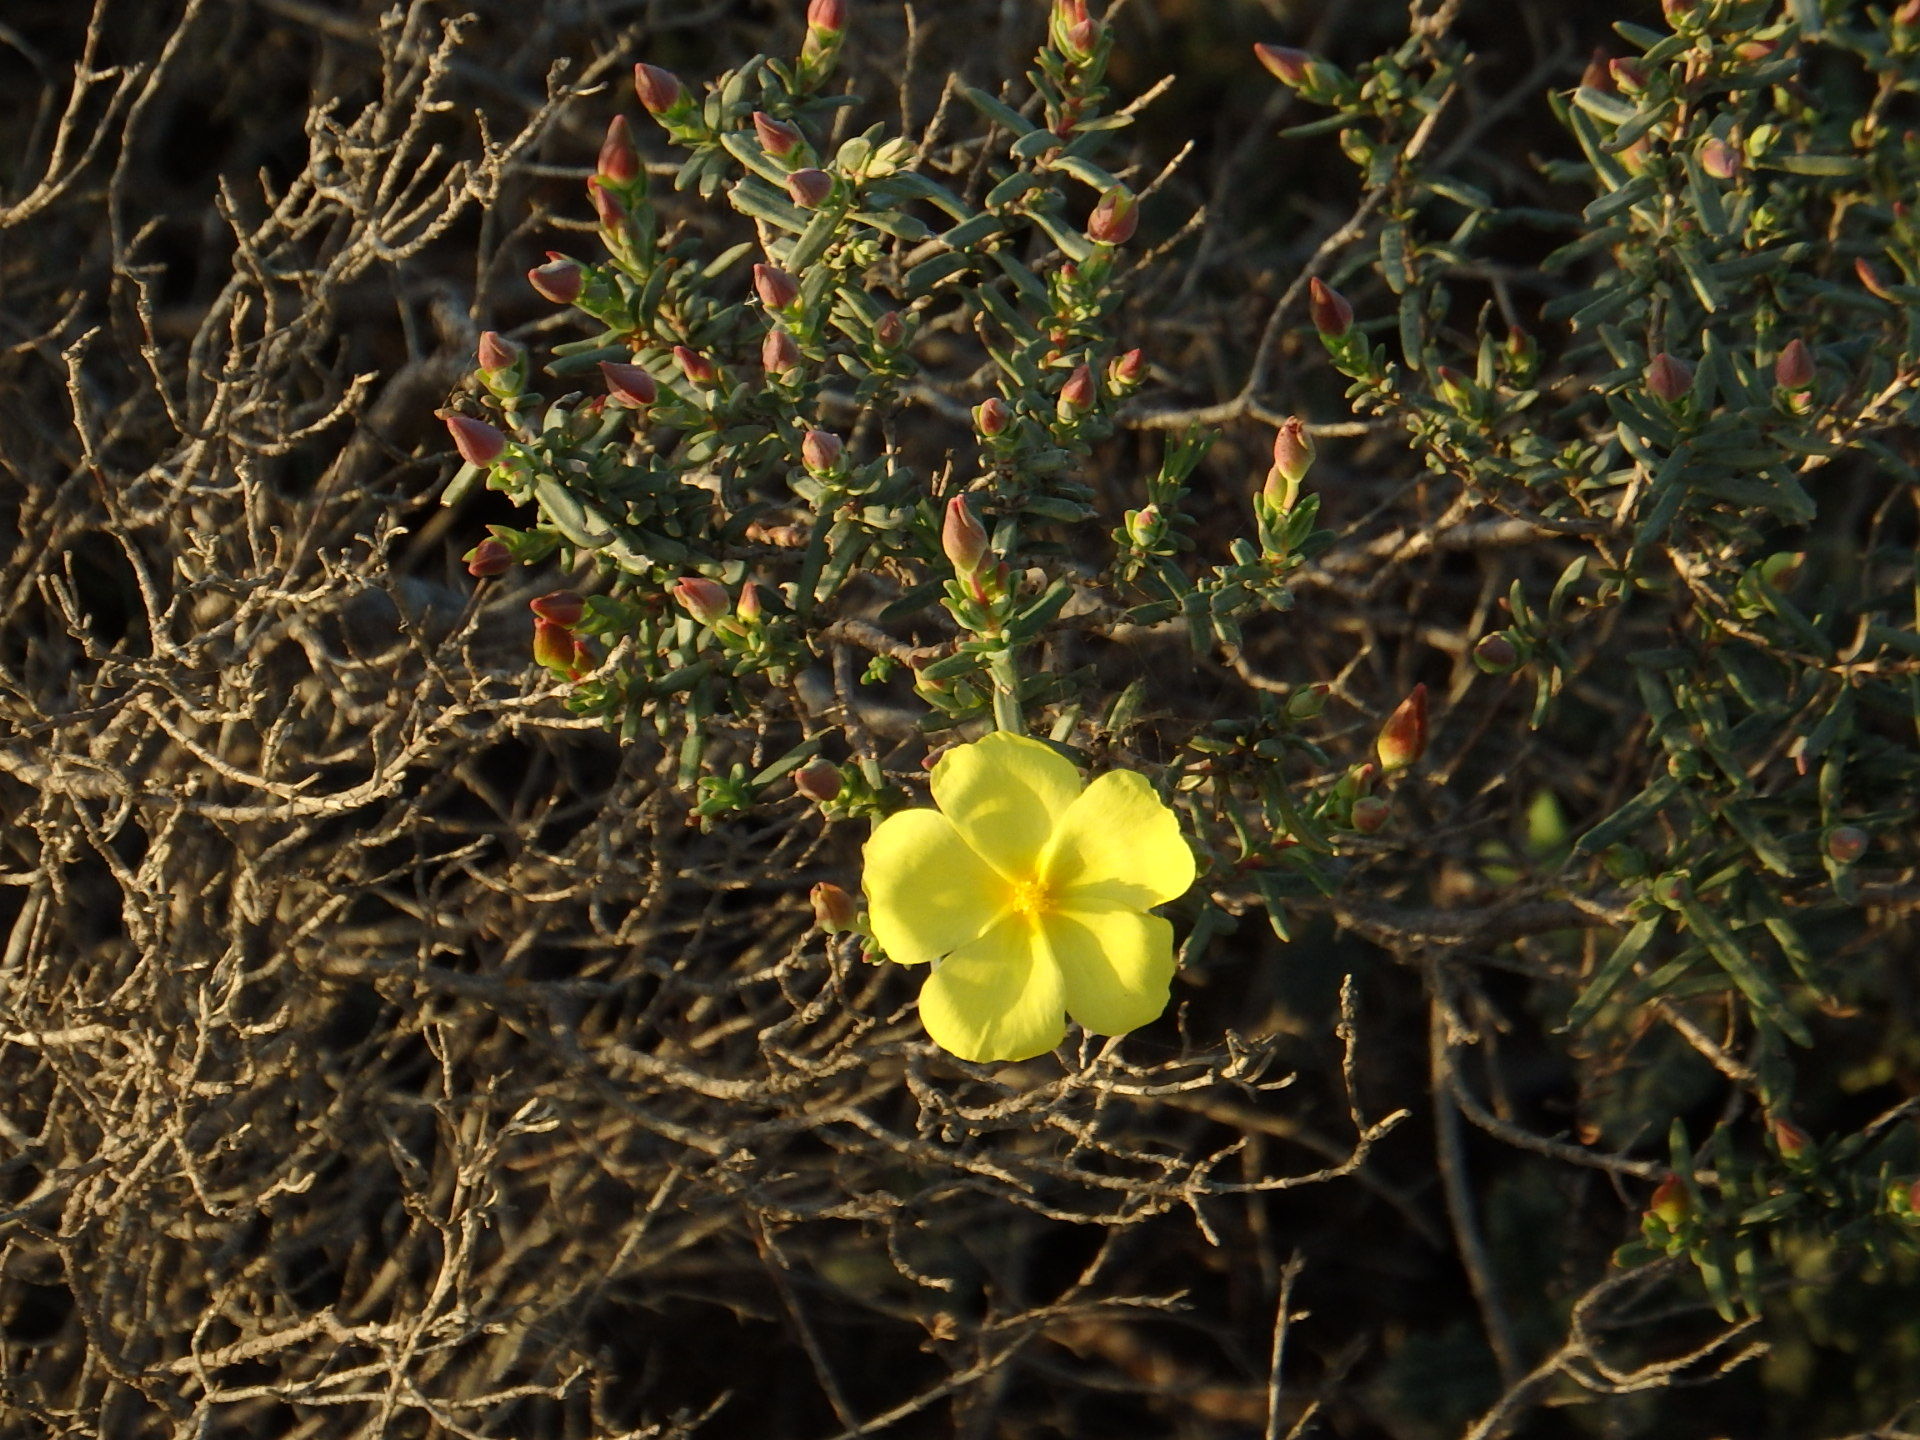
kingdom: Plantae
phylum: Tracheophyta
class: Magnoliopsida
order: Malvales
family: Cistaceae
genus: Halimium
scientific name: Halimium calycinum
